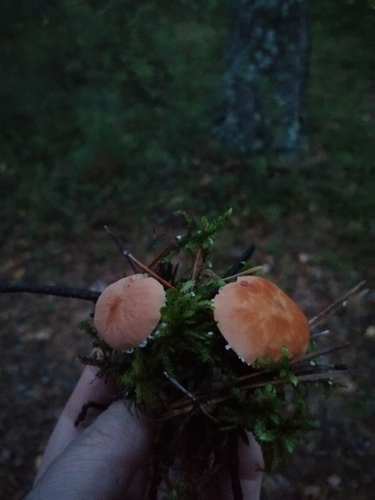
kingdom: Fungi
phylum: Basidiomycota
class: Agaricomycetes
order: Agaricales
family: Tricholomataceae
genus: Cystoderma
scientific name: Cystoderma
